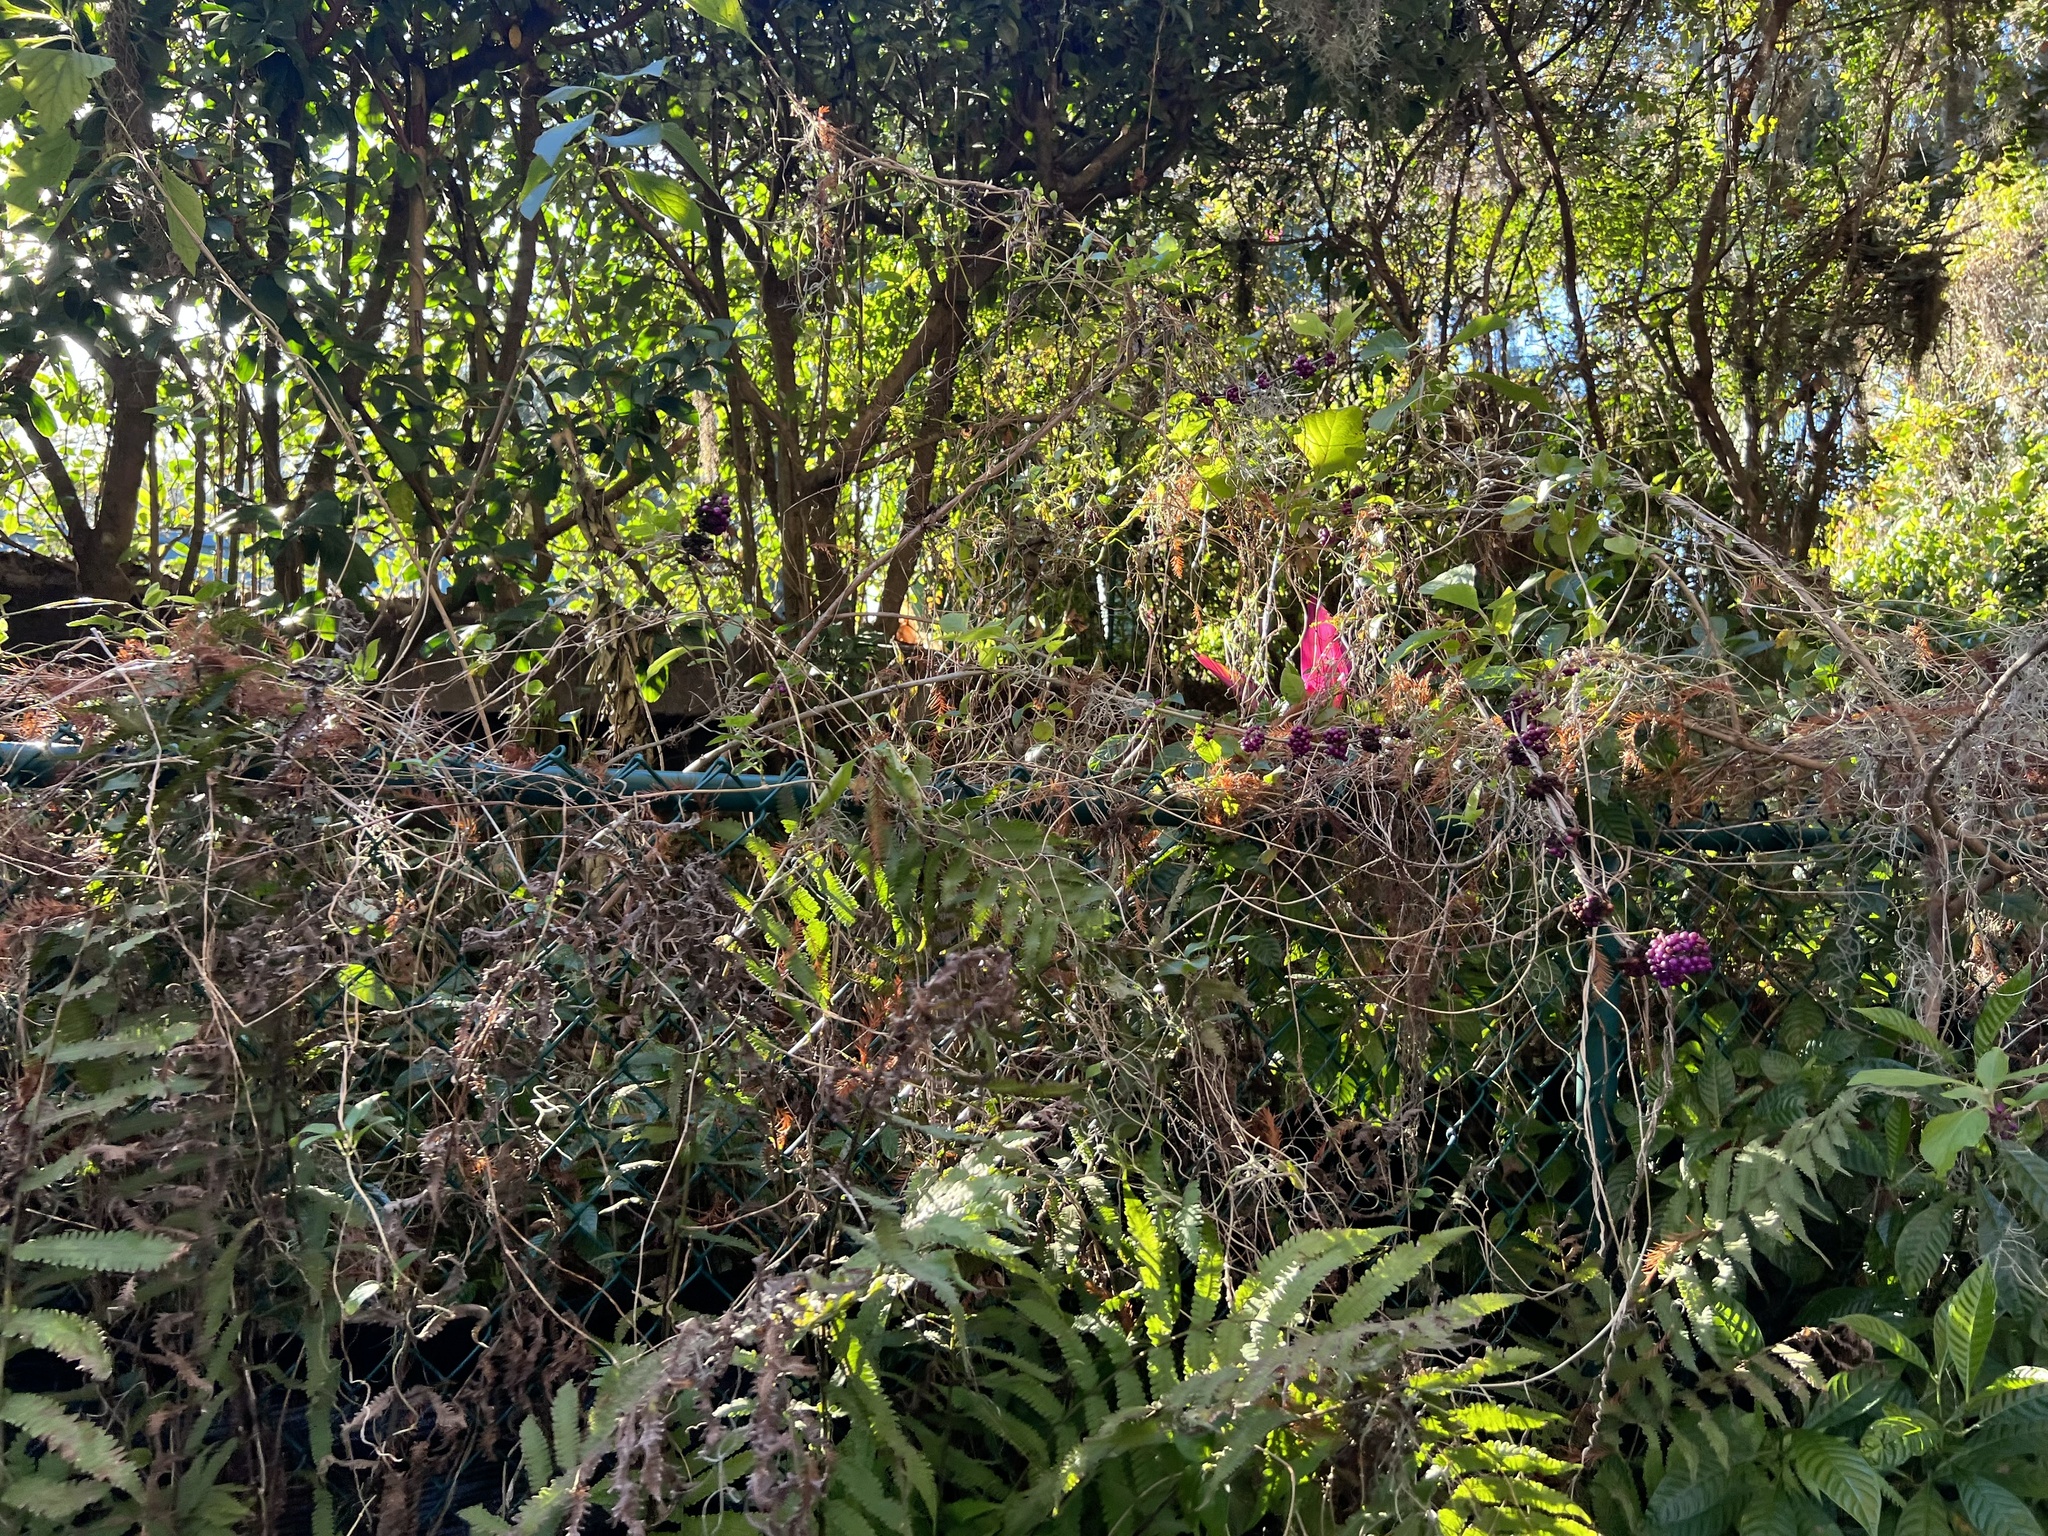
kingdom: Plantae
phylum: Tracheophyta
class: Magnoliopsida
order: Lamiales
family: Lamiaceae
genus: Callicarpa
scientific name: Callicarpa americana
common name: American beautyberry
